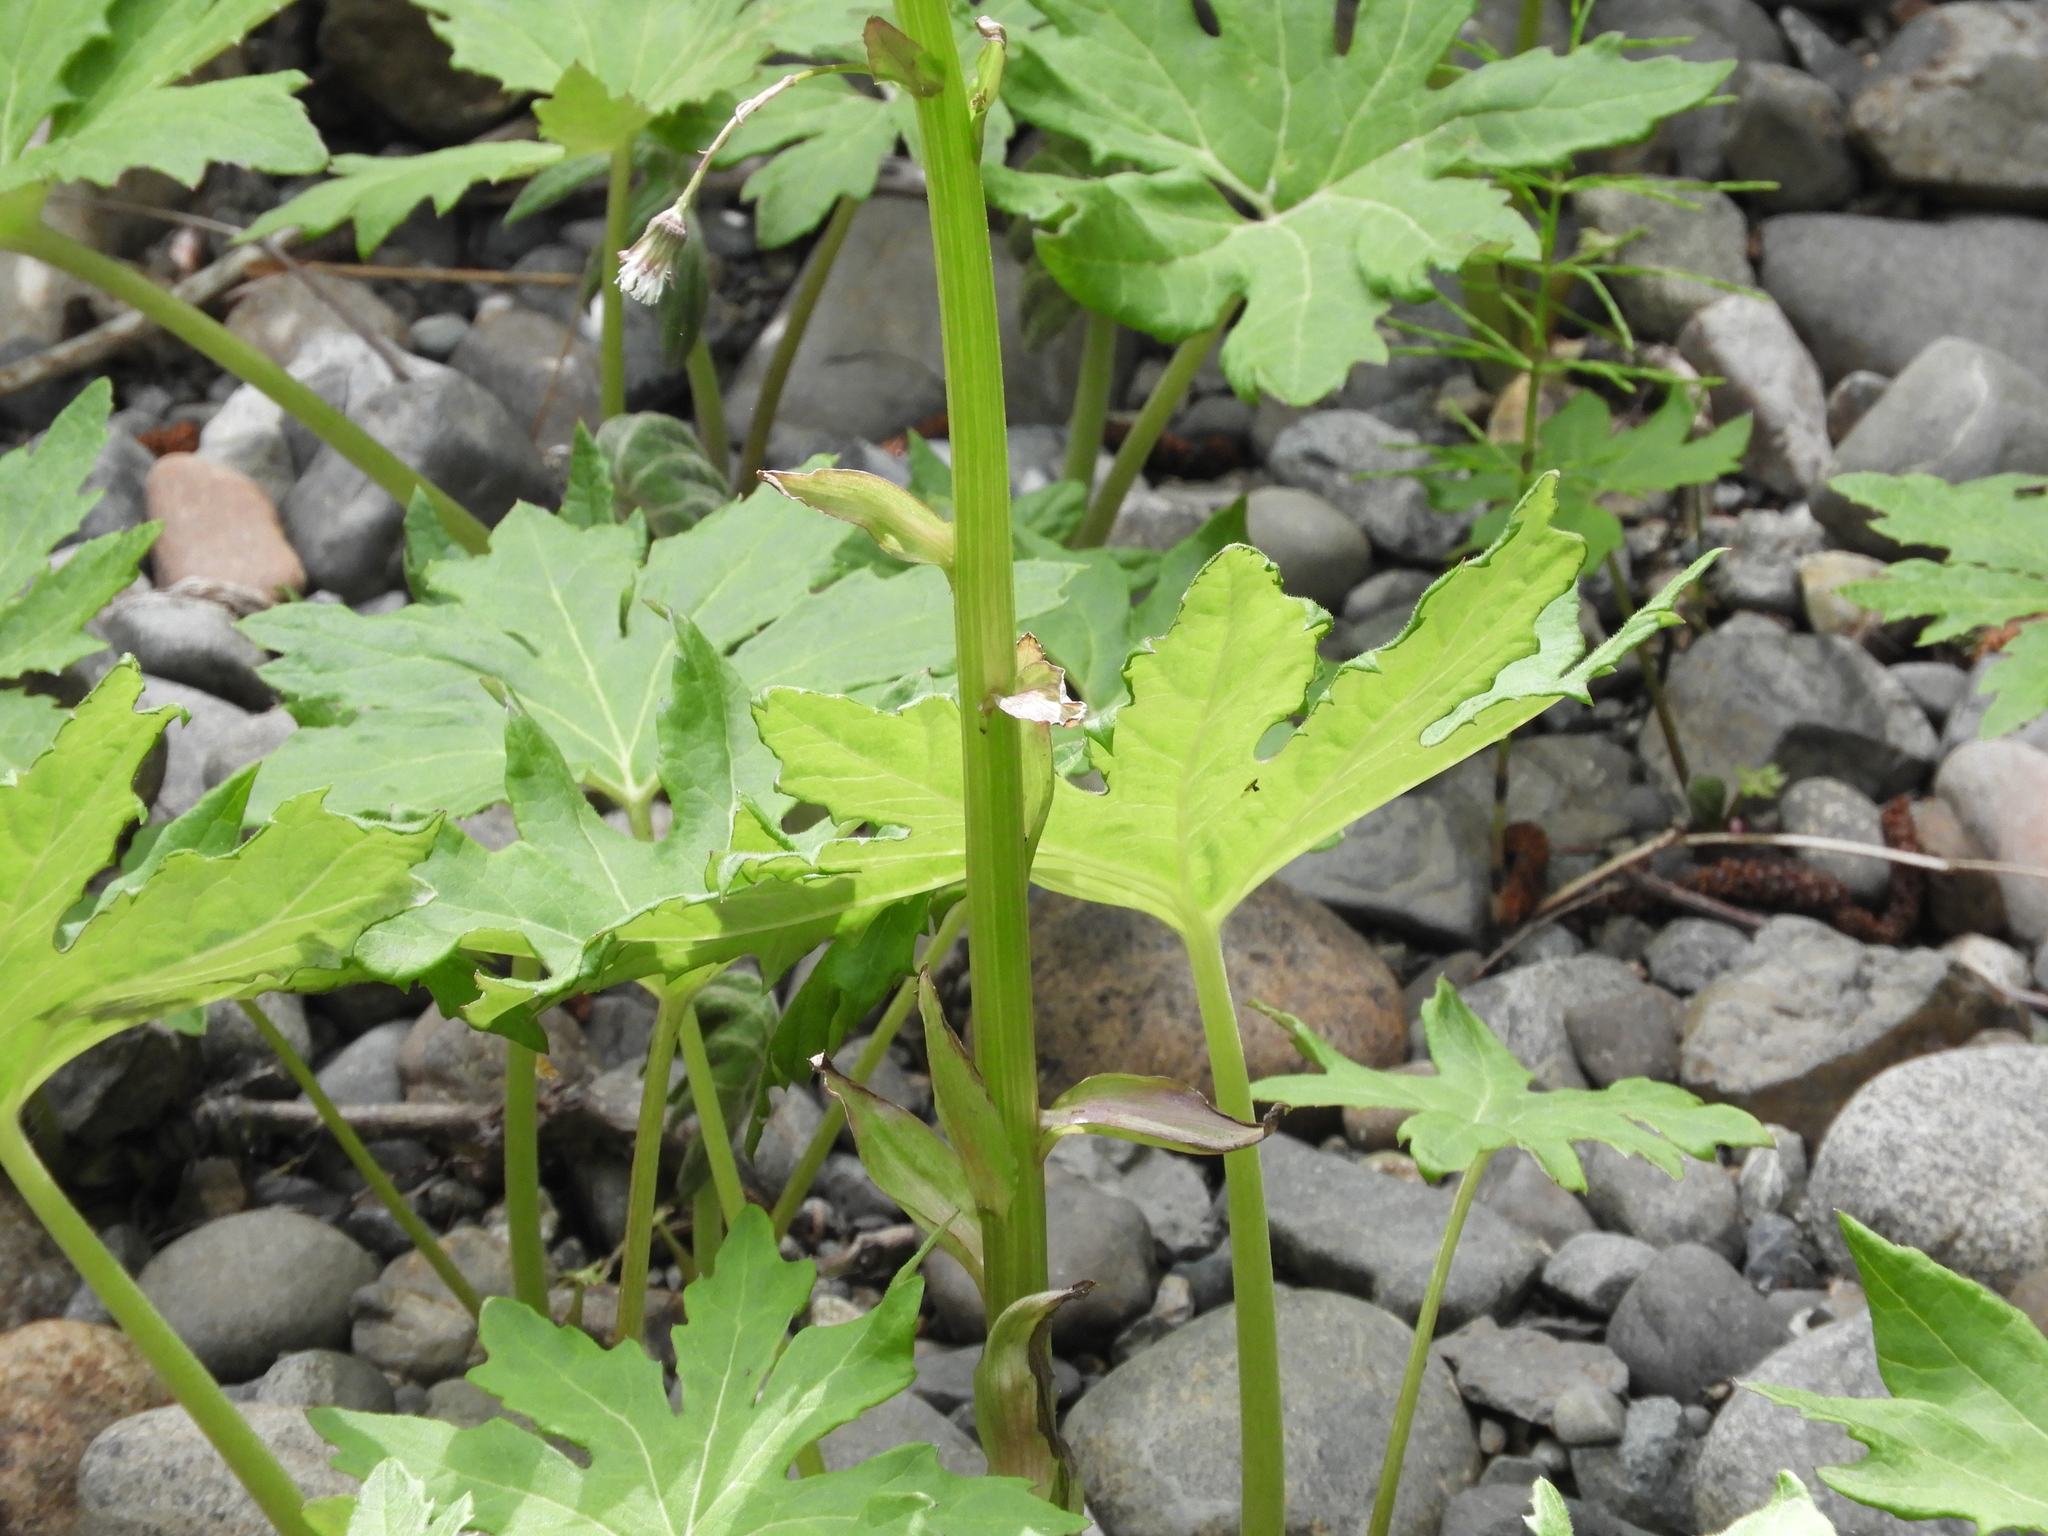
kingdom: Plantae
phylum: Tracheophyta
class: Magnoliopsida
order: Asterales
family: Asteraceae
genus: Petasites
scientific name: Petasites frigidus
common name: Arctic butterbur
